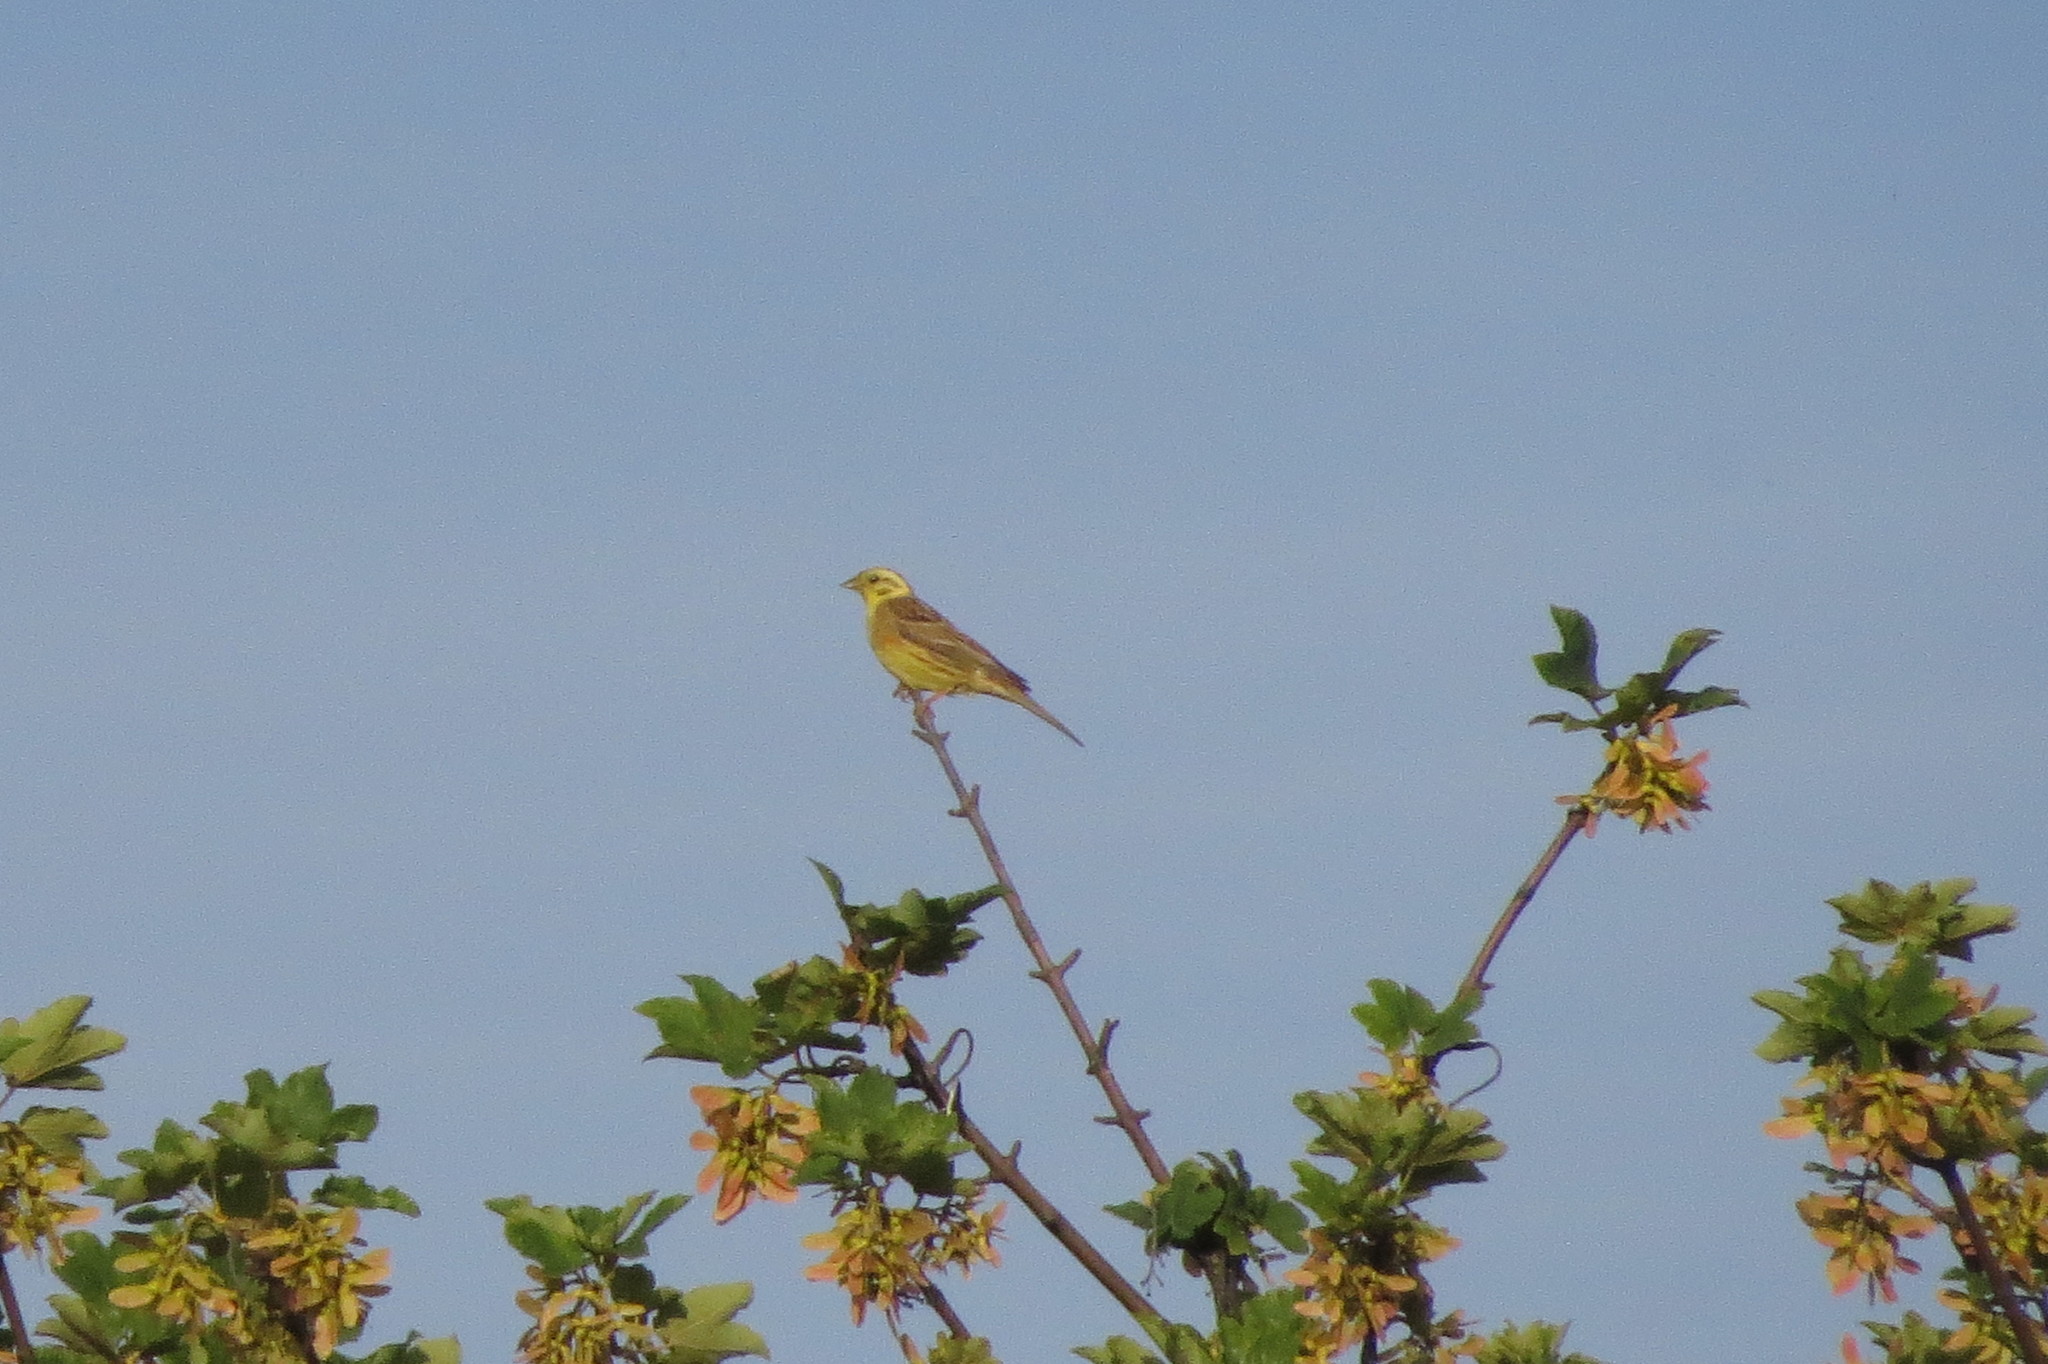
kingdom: Animalia
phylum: Chordata
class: Aves
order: Passeriformes
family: Emberizidae
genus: Emberiza
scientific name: Emberiza citrinella
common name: Yellowhammer
